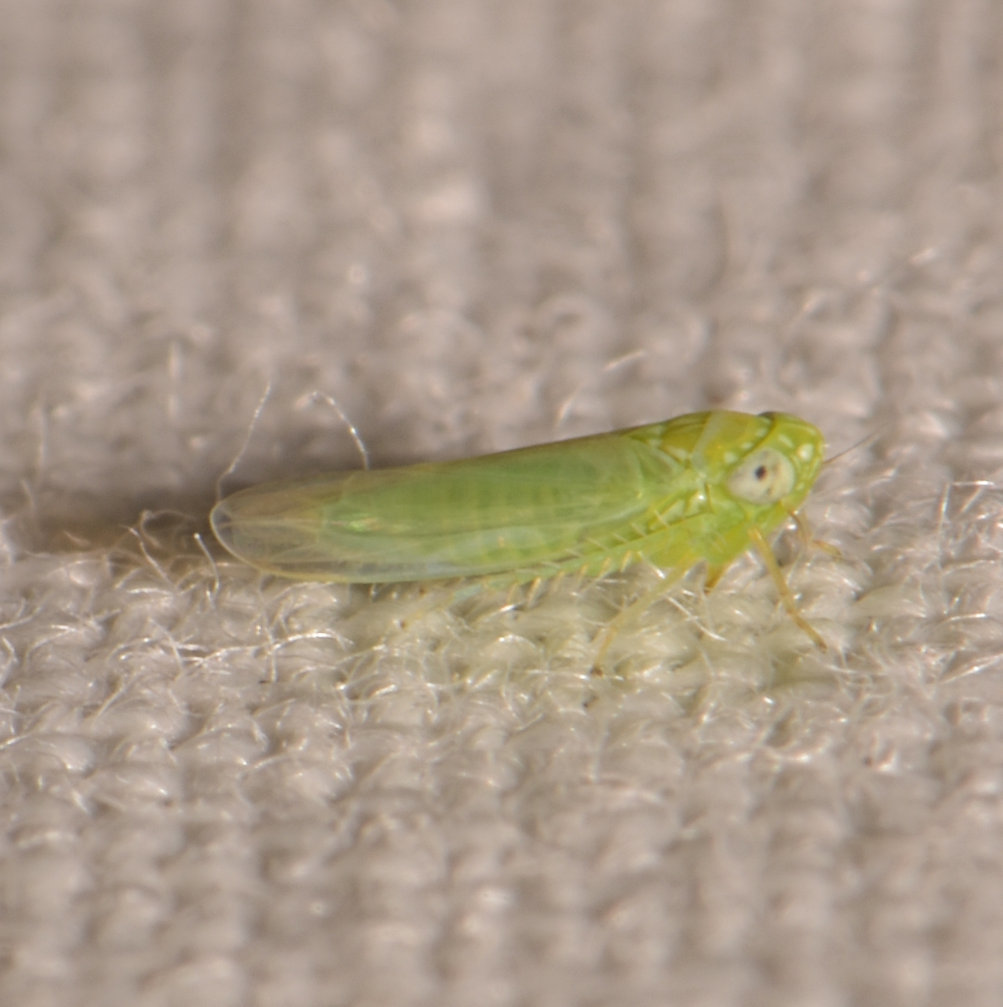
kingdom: Animalia
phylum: Arthropoda
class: Insecta
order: Hemiptera
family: Cicadellidae
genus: Empoasca
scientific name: Empoasca fabae
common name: Potato leafhopper
